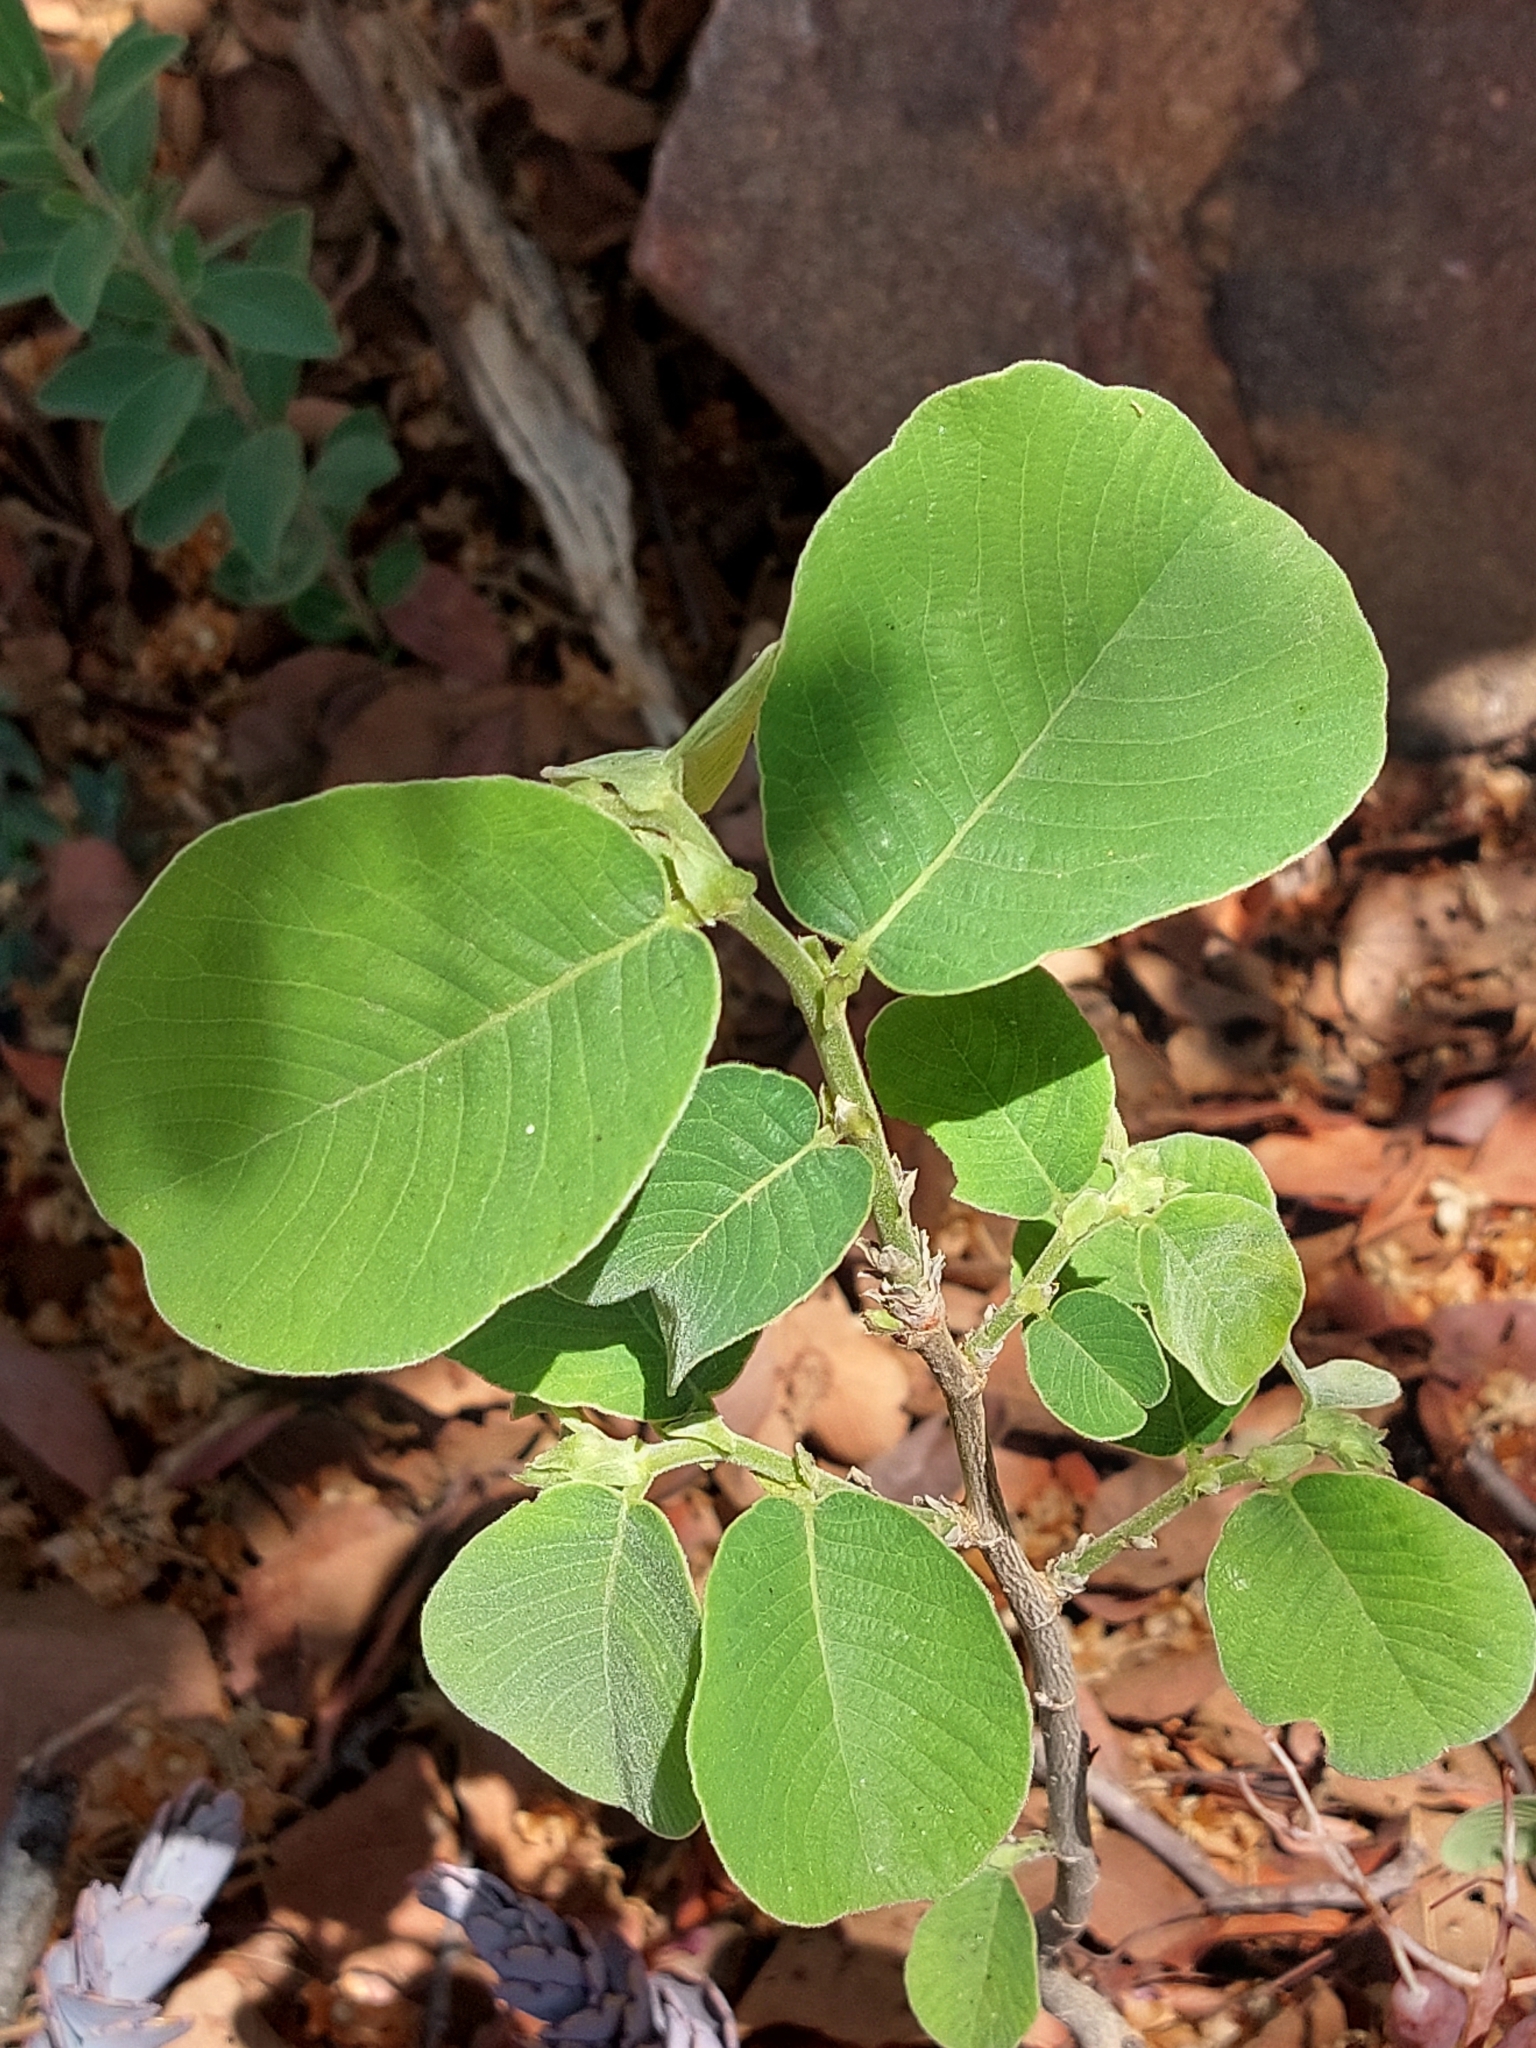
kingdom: Plantae
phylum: Tracheophyta
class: Magnoliopsida
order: Malpighiales
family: Phyllanthaceae
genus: Bridelia
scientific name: Bridelia mollis
